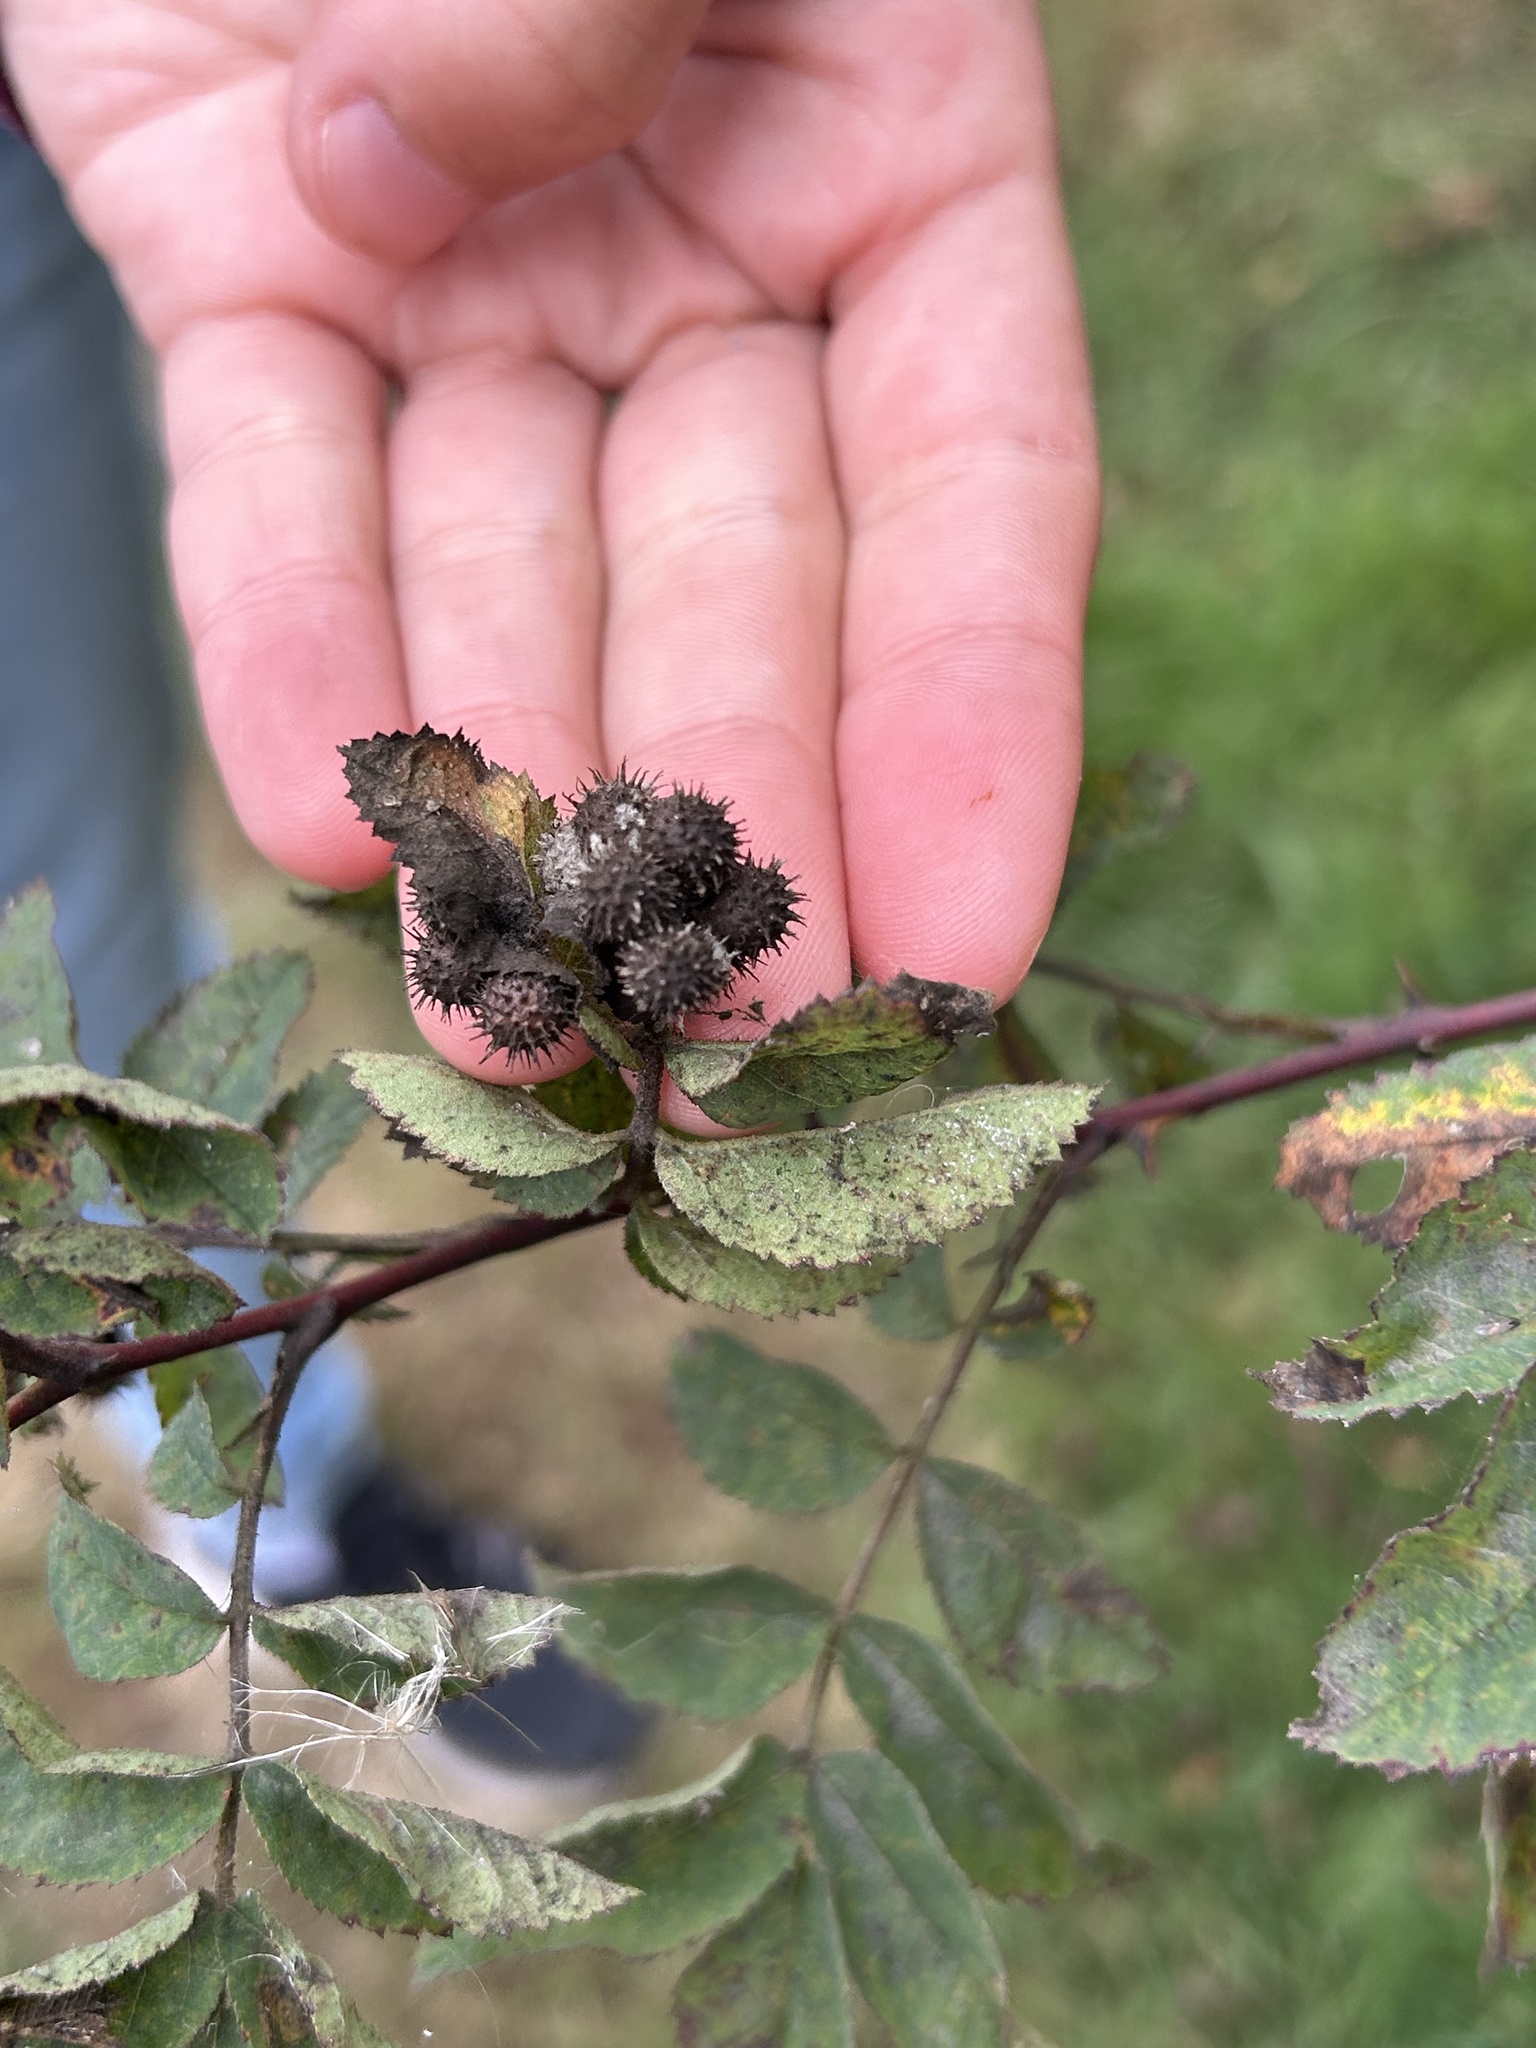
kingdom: Animalia
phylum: Arthropoda
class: Insecta
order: Hymenoptera
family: Cynipidae
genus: Diplolepis
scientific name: Diplolepis polita
